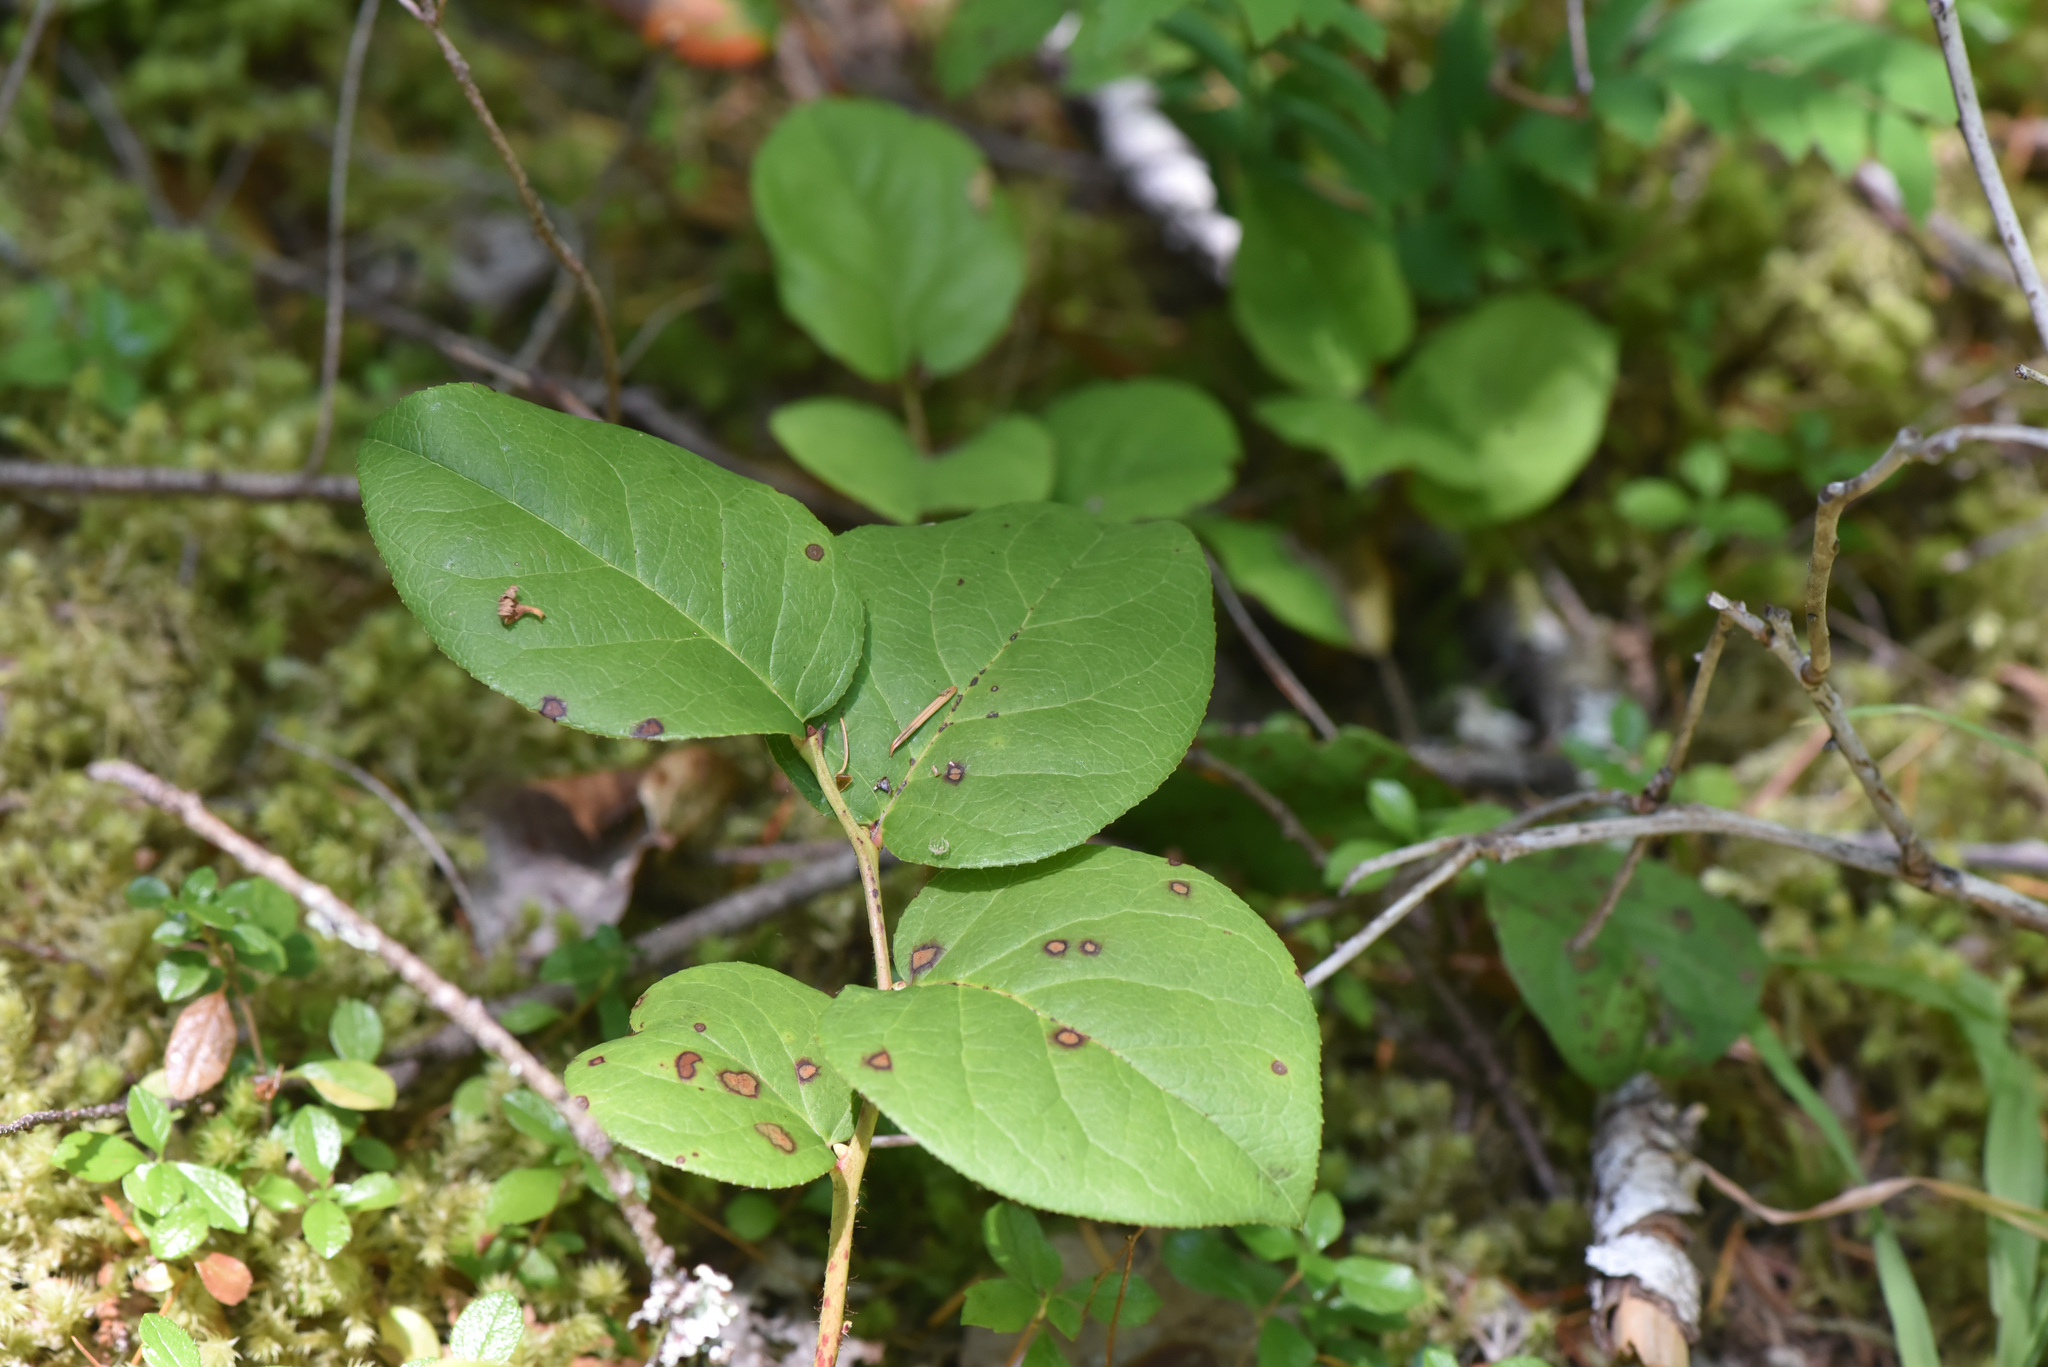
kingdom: Plantae
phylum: Tracheophyta
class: Magnoliopsida
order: Ericales
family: Ericaceae
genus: Gaultheria
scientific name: Gaultheria shallon
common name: Shallon
